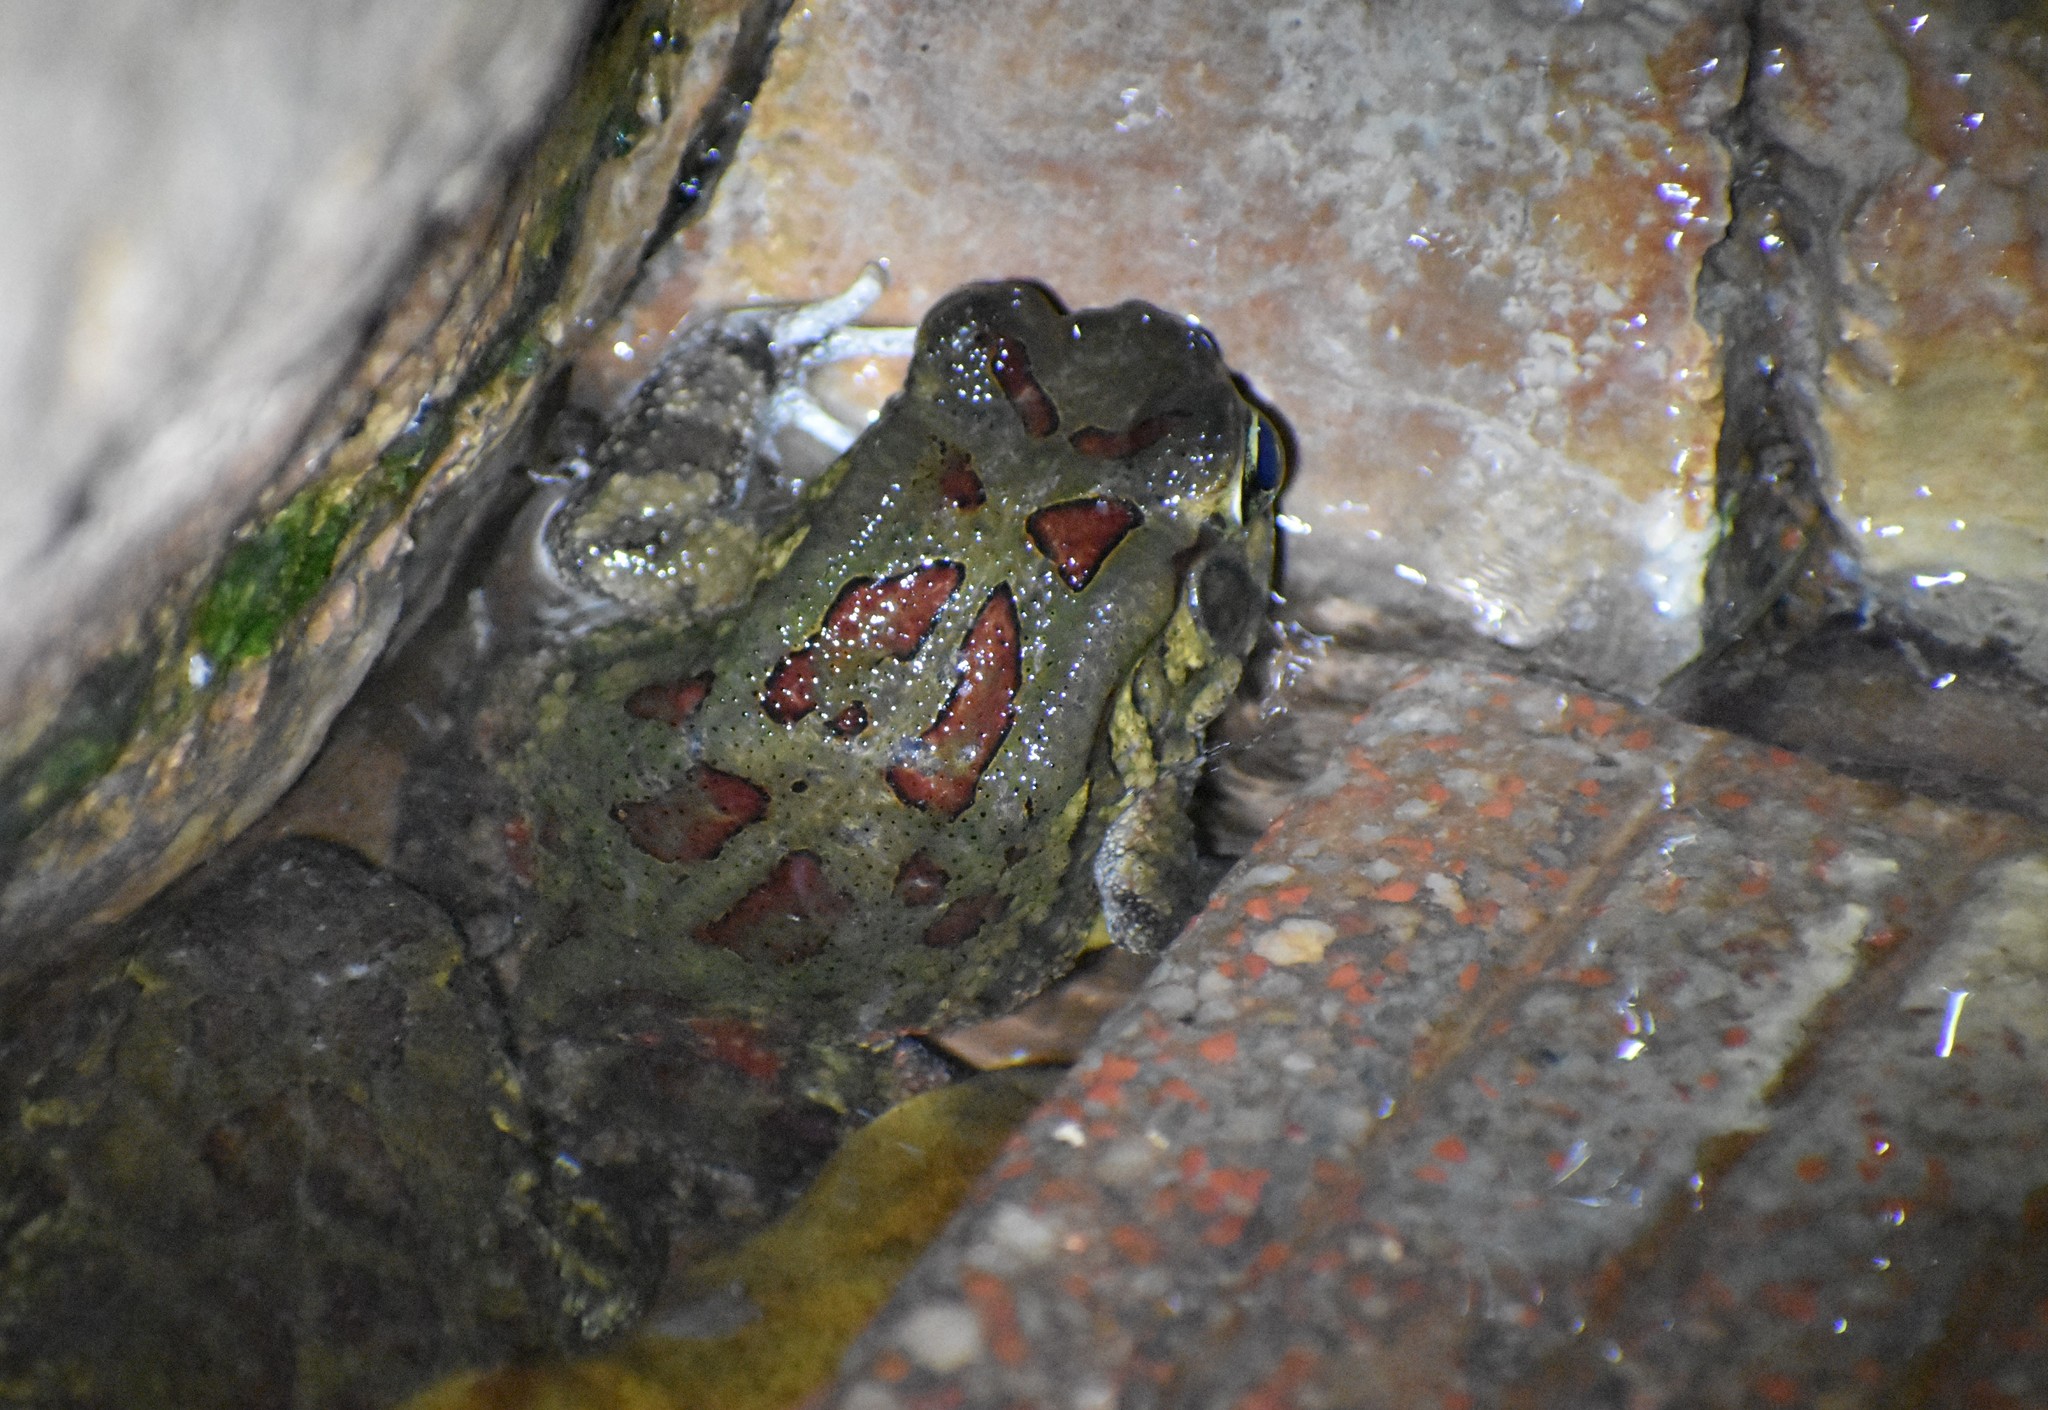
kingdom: Animalia
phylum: Chordata
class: Amphibia
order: Anura
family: Bufonidae
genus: Sclerophrys
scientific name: Sclerophrys garmani
